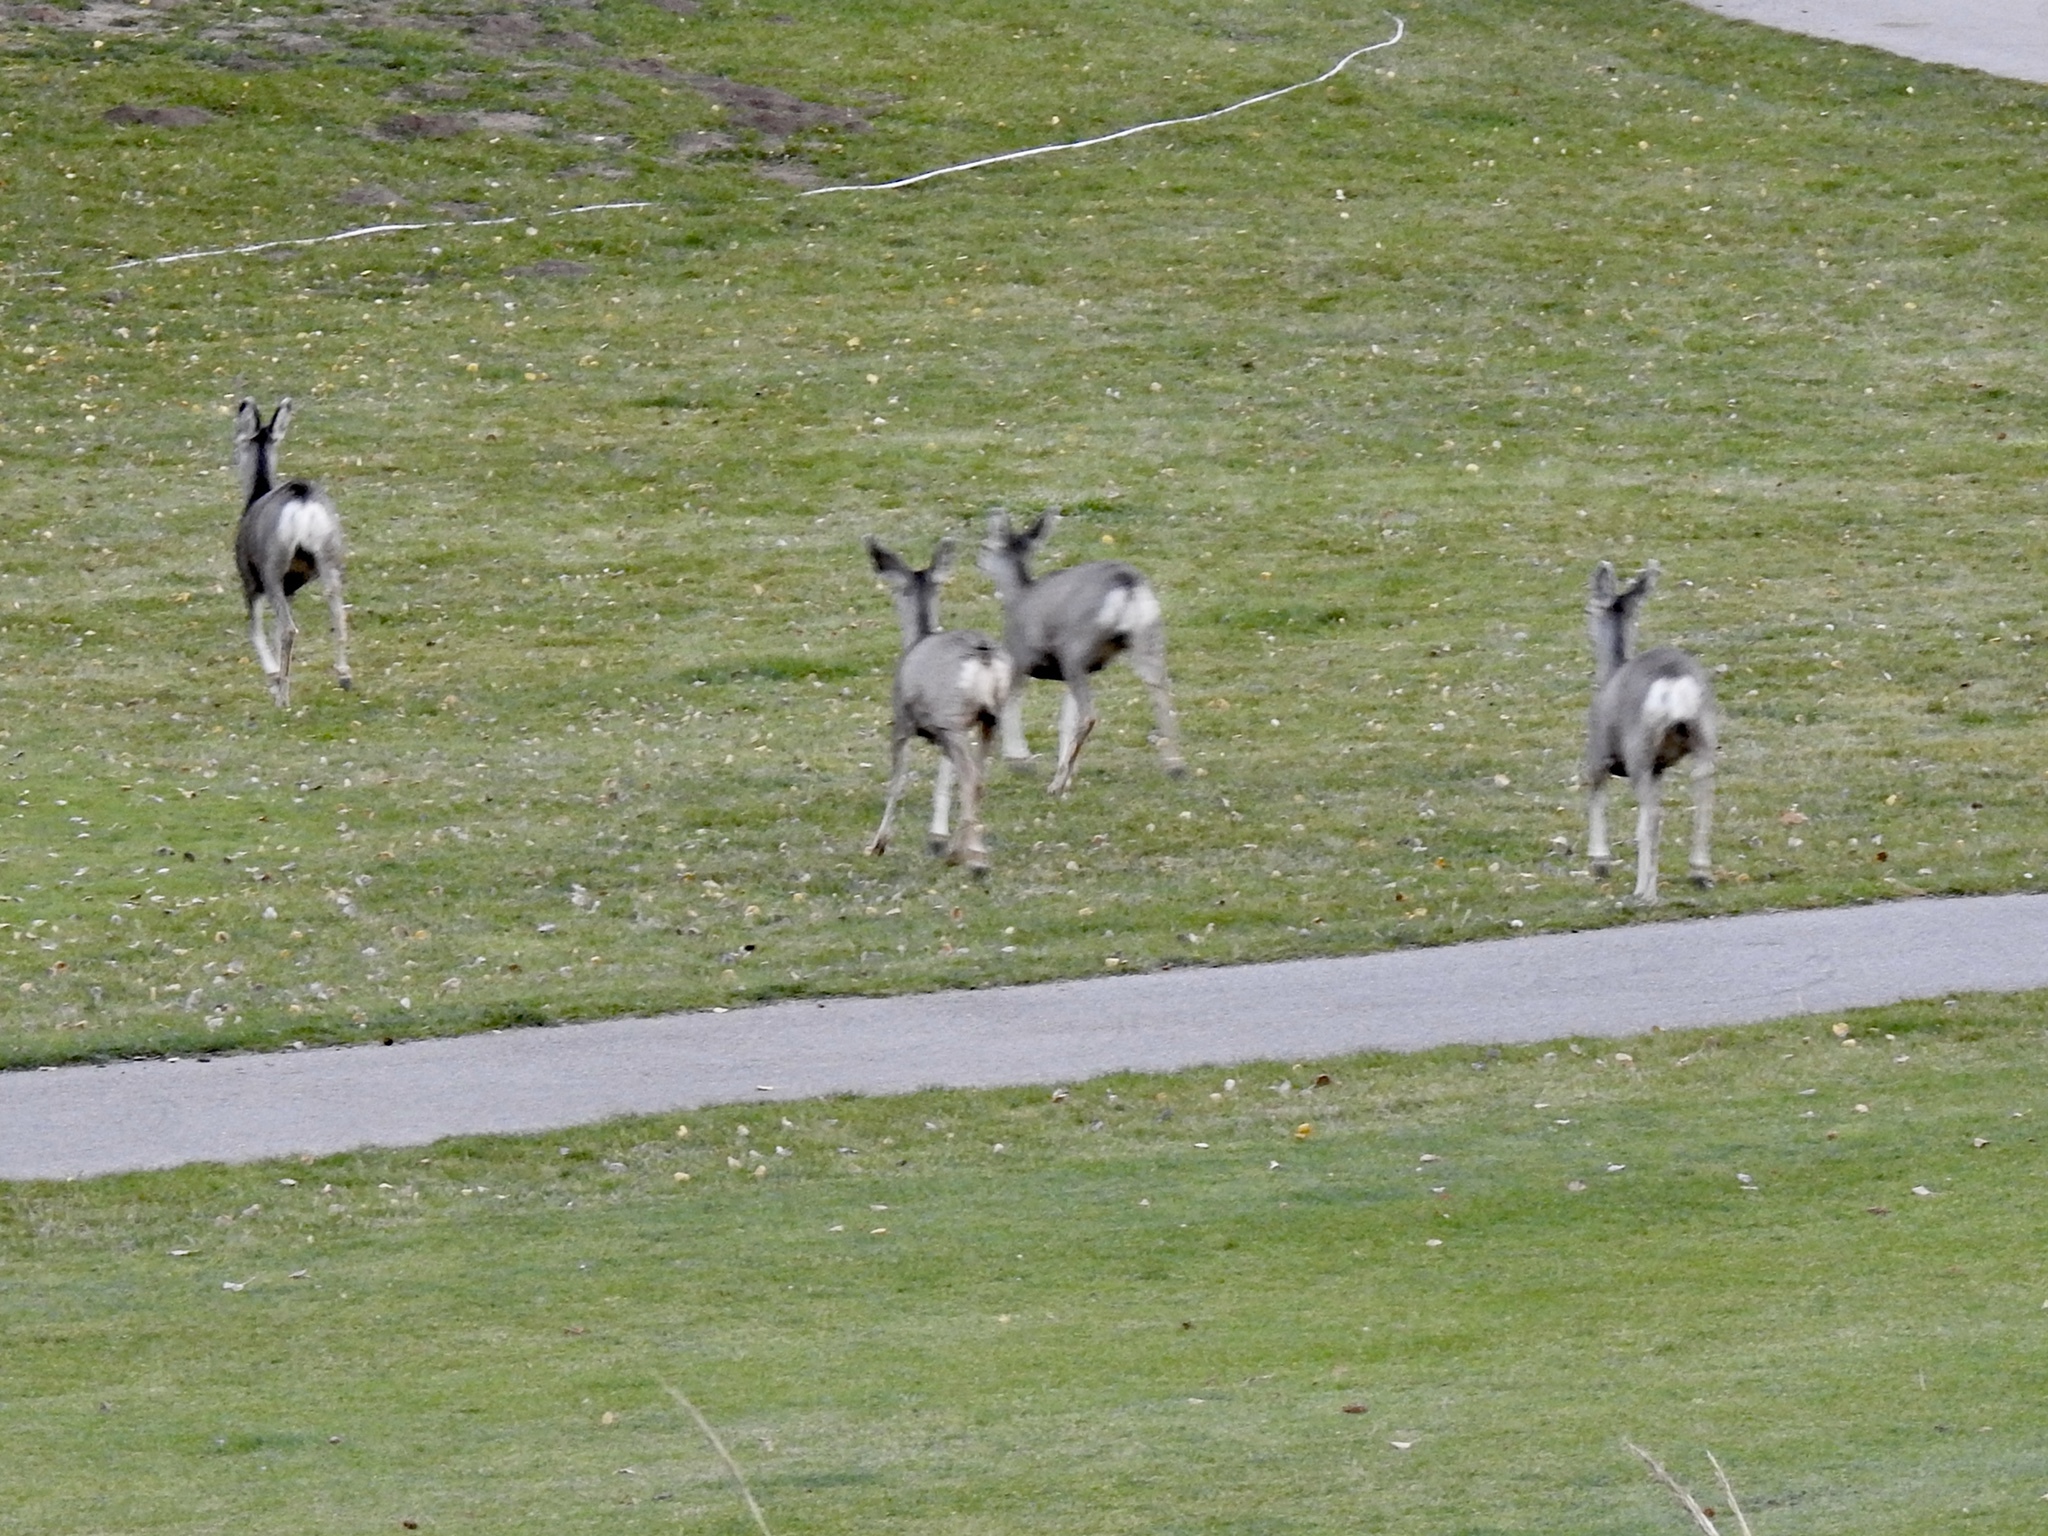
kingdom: Animalia
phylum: Chordata
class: Mammalia
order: Artiodactyla
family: Cervidae
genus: Odocoileus
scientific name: Odocoileus hemionus
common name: Mule deer
